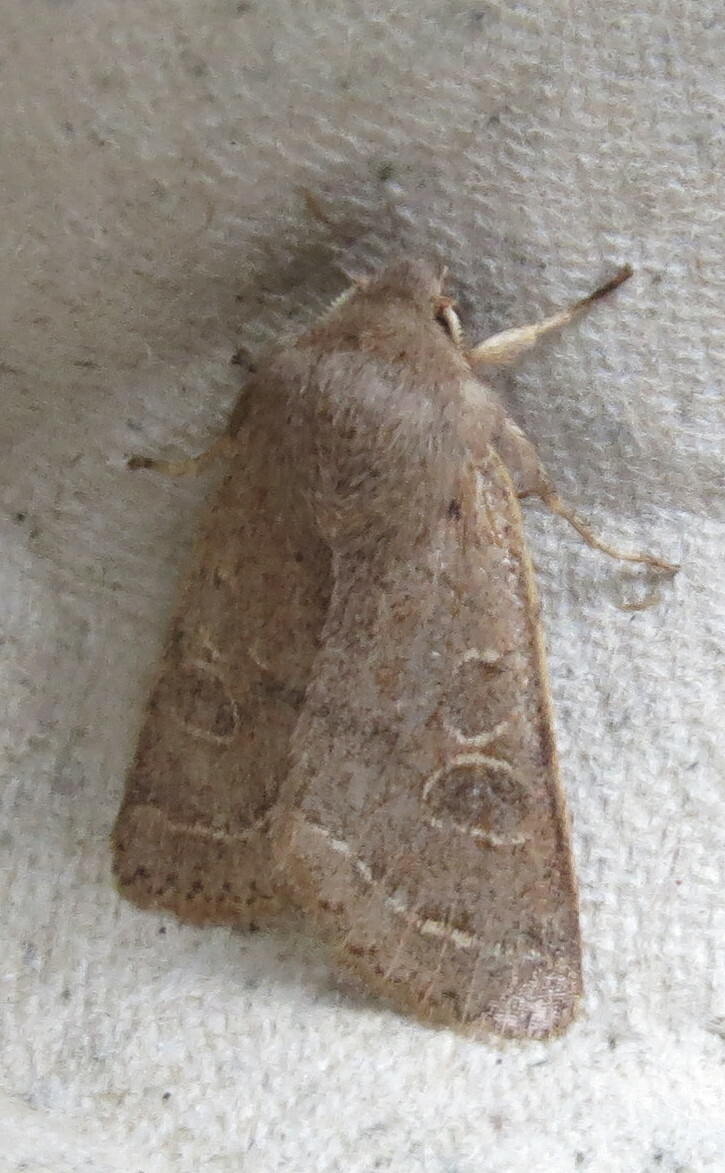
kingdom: Animalia
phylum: Arthropoda
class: Insecta
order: Lepidoptera
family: Noctuidae
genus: Orthosia
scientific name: Orthosia cerasi
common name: Common quaker
